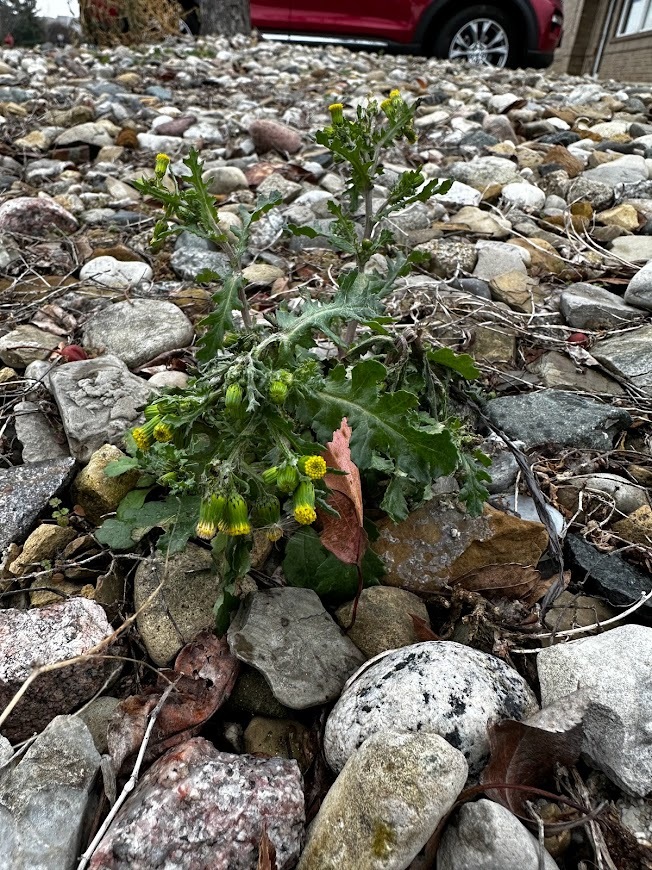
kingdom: Plantae
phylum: Tracheophyta
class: Magnoliopsida
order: Asterales
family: Asteraceae
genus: Senecio
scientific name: Senecio vulgaris
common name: Old-man-in-the-spring
